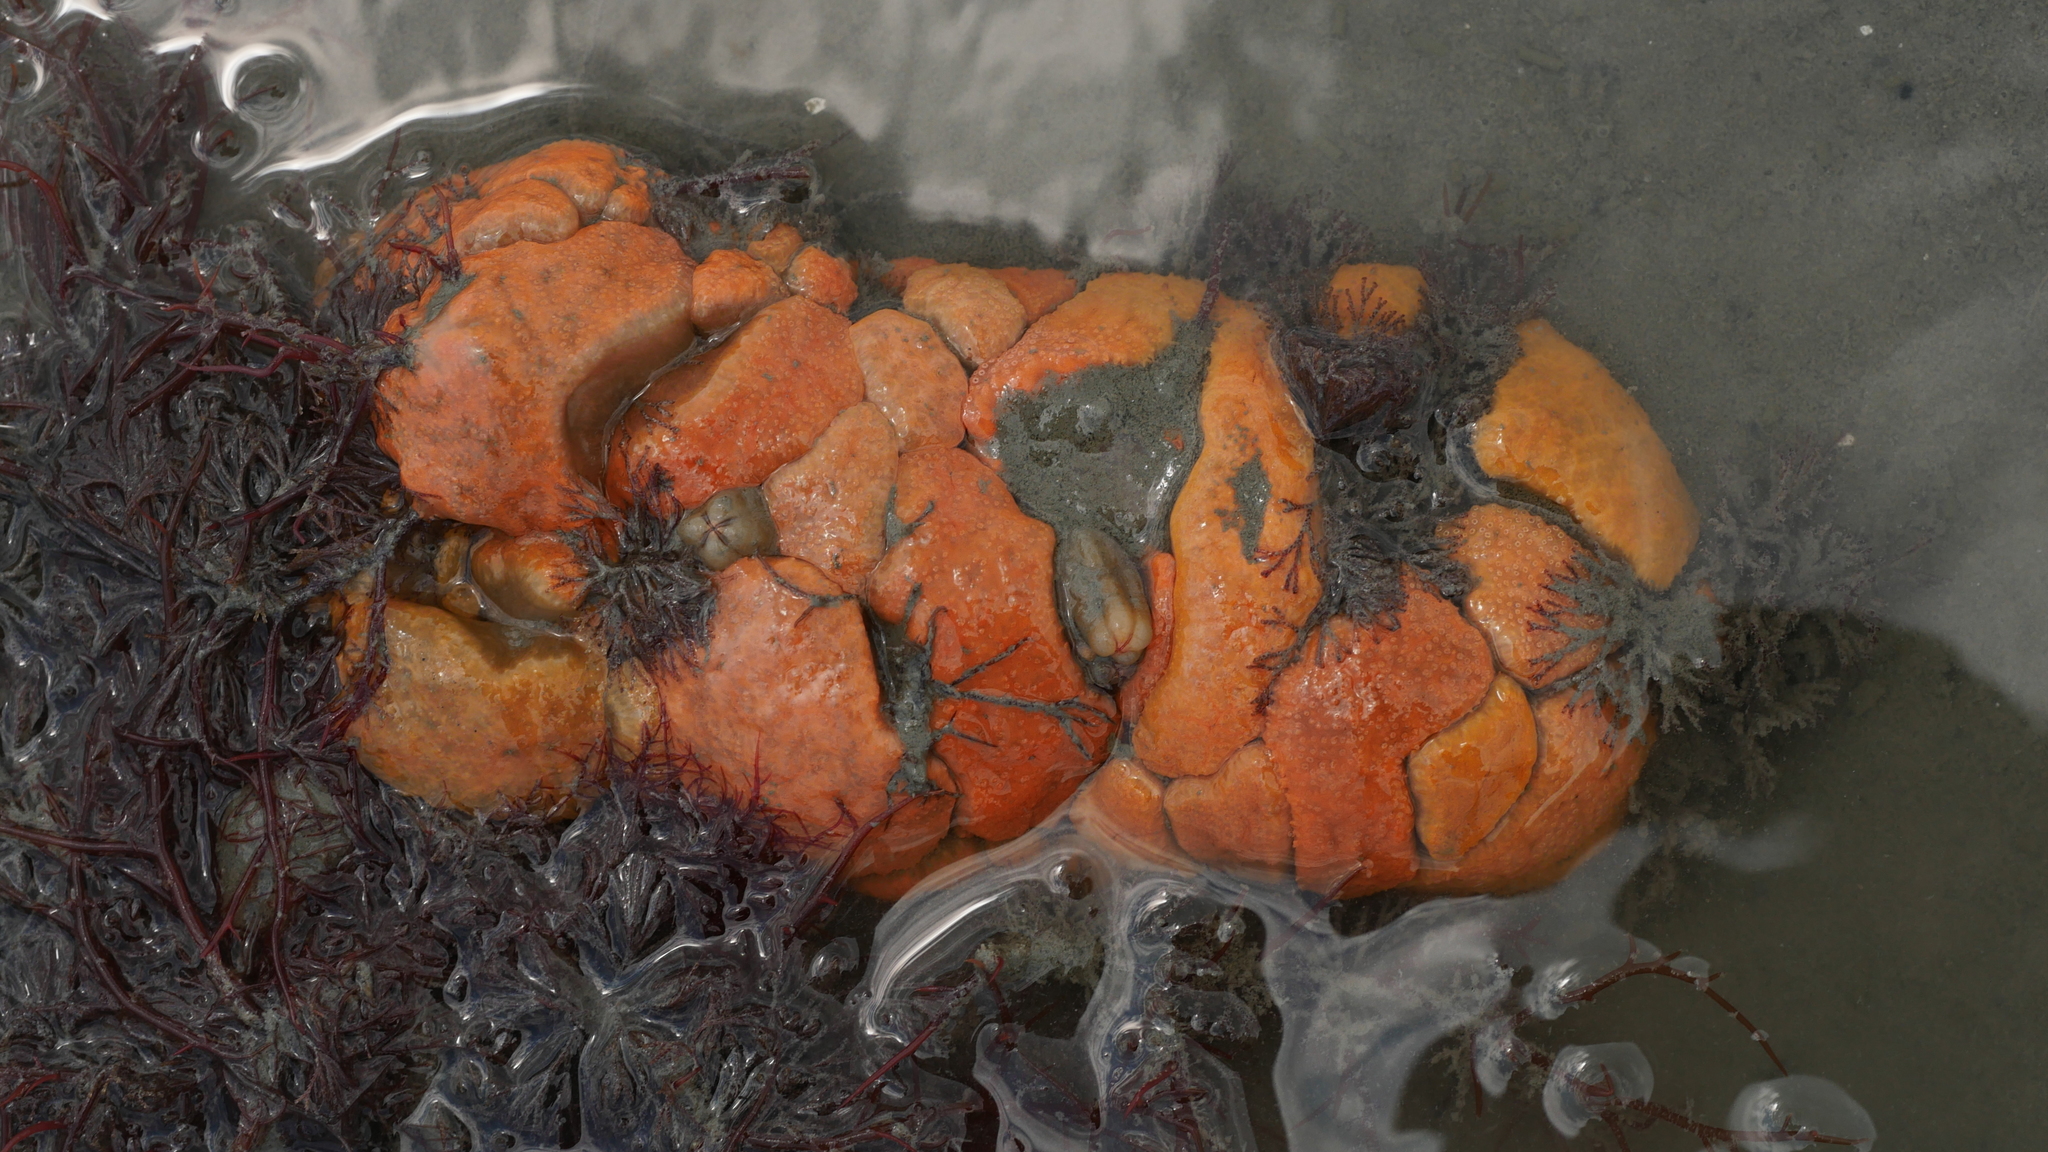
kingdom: Animalia
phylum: Chordata
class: Ascidiacea
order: Aplousobranchia
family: Polyclinidae
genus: Aplidium
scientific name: Aplidium stellatum
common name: Atlantic sea pork
